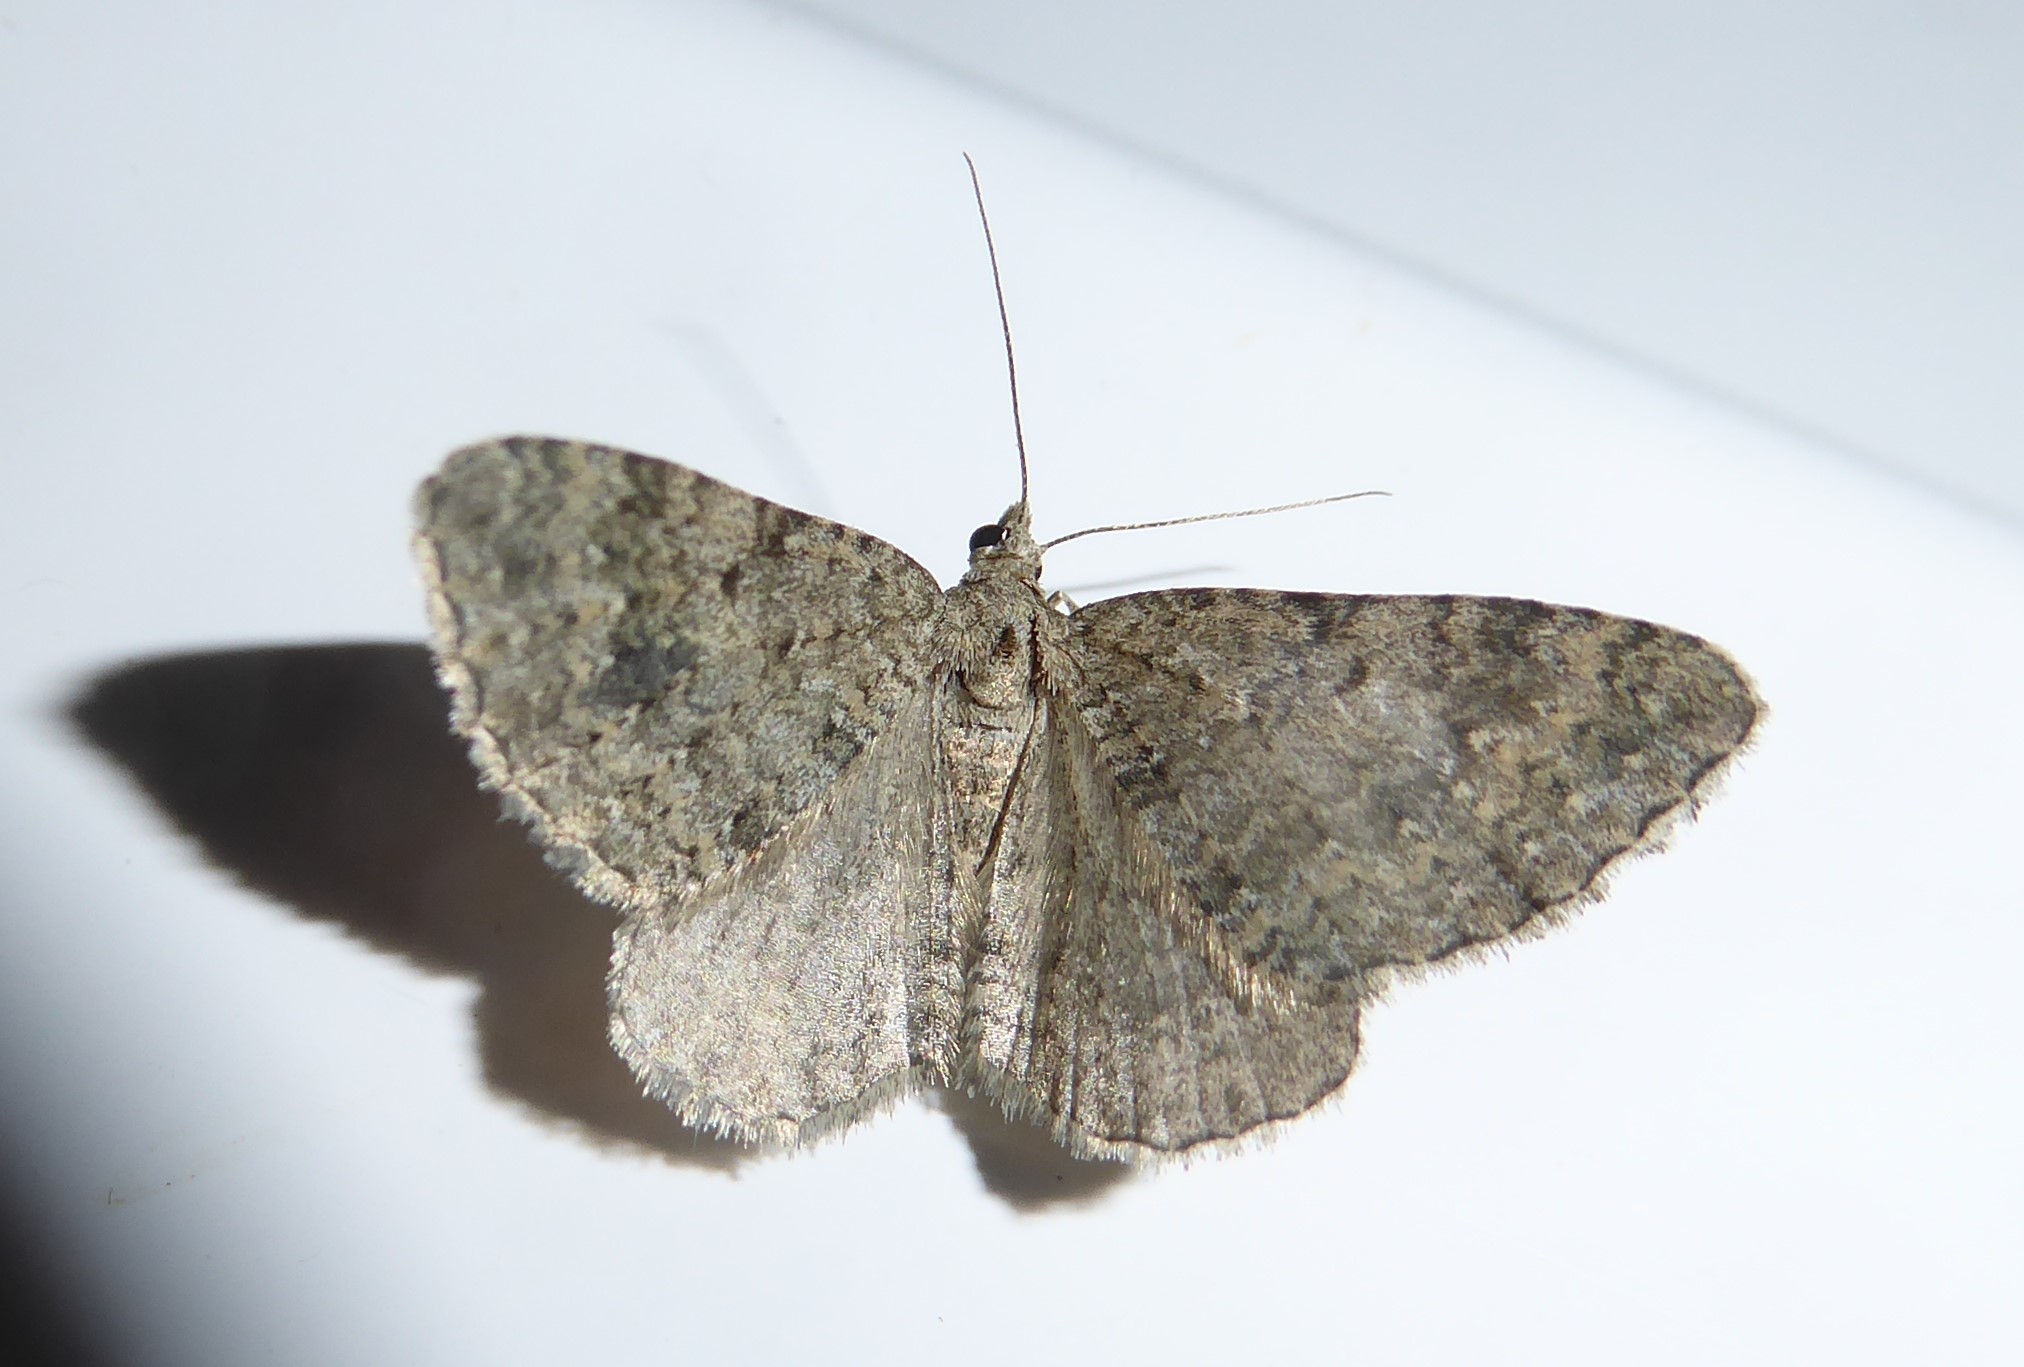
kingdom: Animalia
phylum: Arthropoda
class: Insecta
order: Lepidoptera
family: Geometridae
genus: Helastia
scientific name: Helastia corcularia
